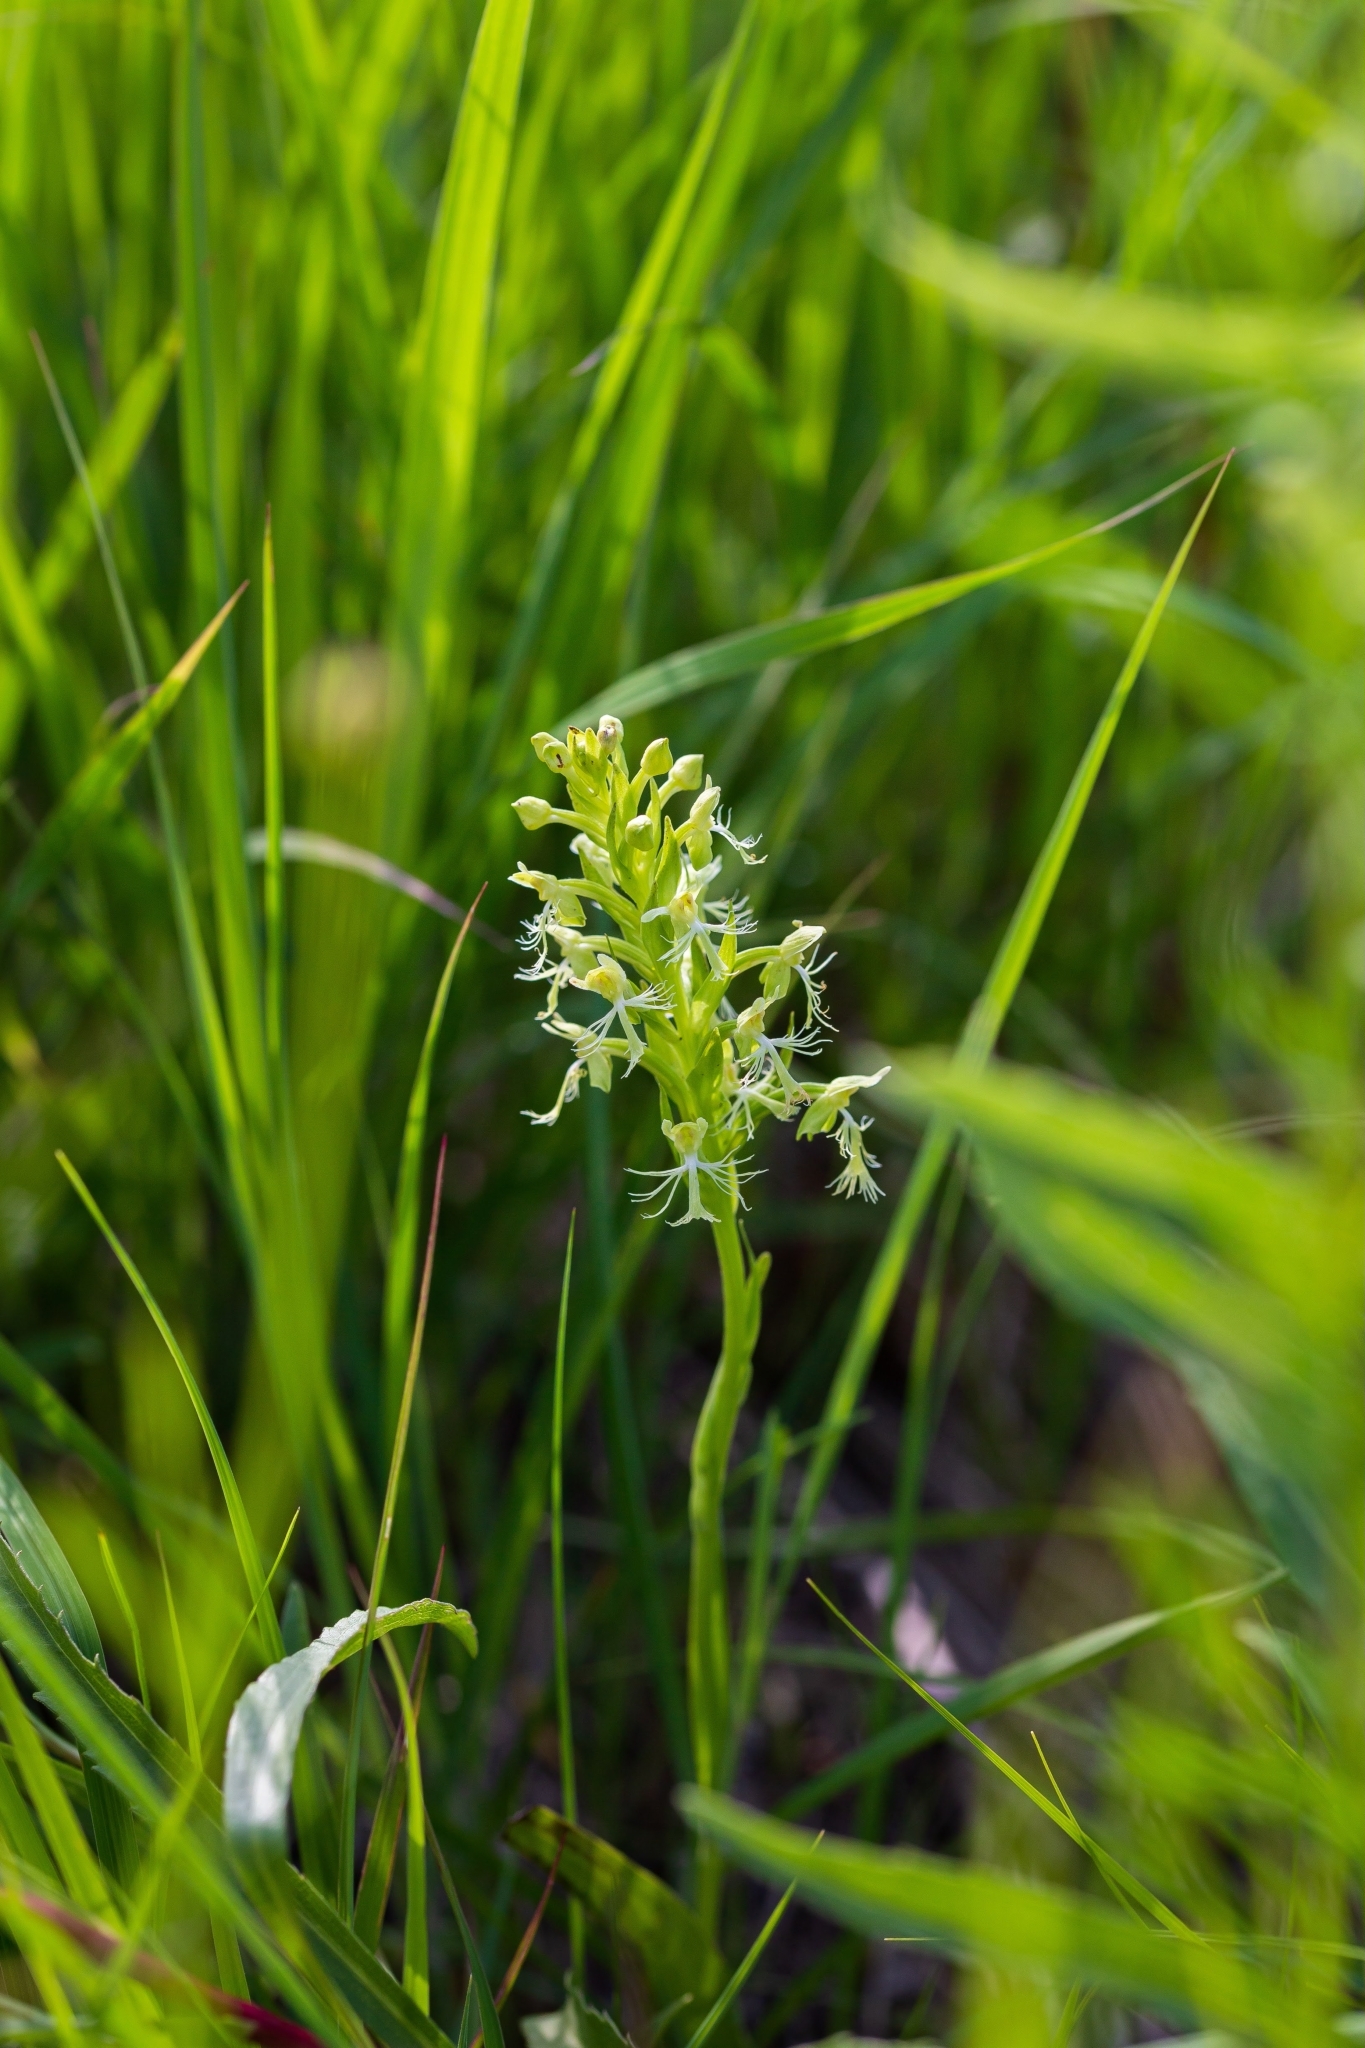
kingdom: Plantae
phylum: Tracheophyta
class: Liliopsida
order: Asparagales
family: Orchidaceae
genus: Platanthera
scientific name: Platanthera lacera
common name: Green fringed orchid
